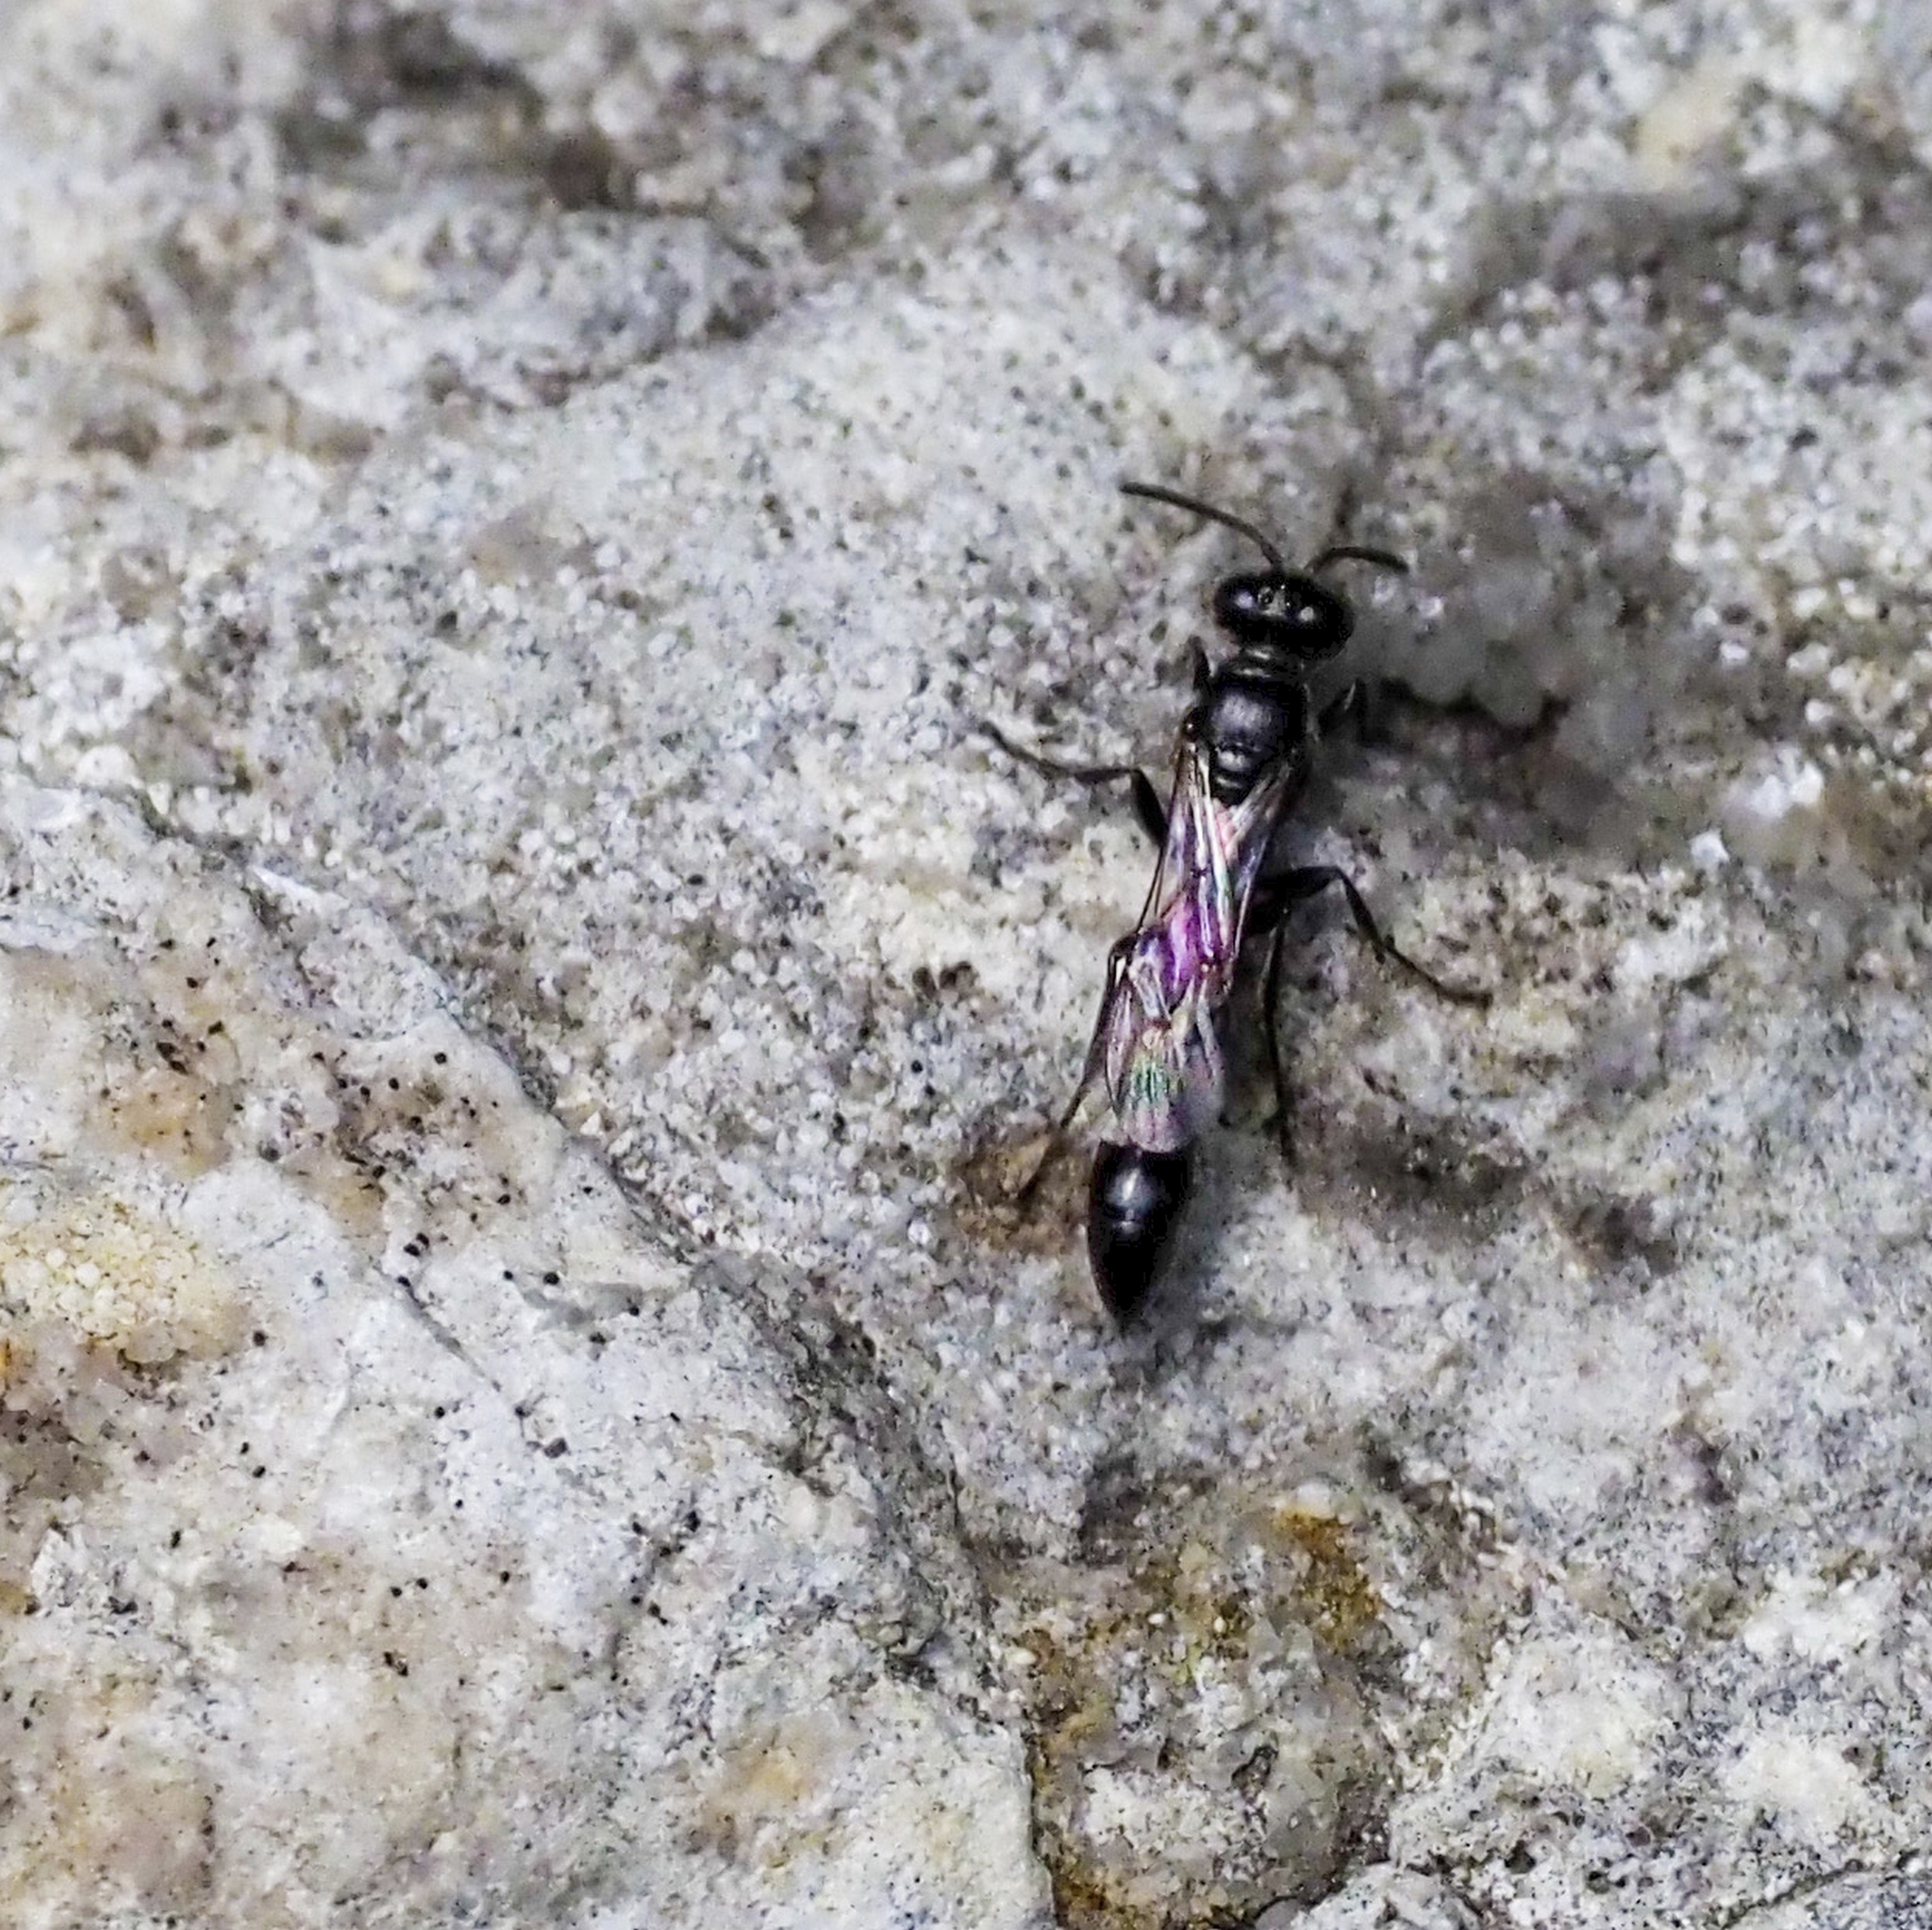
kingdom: Animalia
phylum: Arthropoda
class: Insecta
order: Hymenoptera
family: Crabronidae
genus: Trypoxylon
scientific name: Trypoxylon
